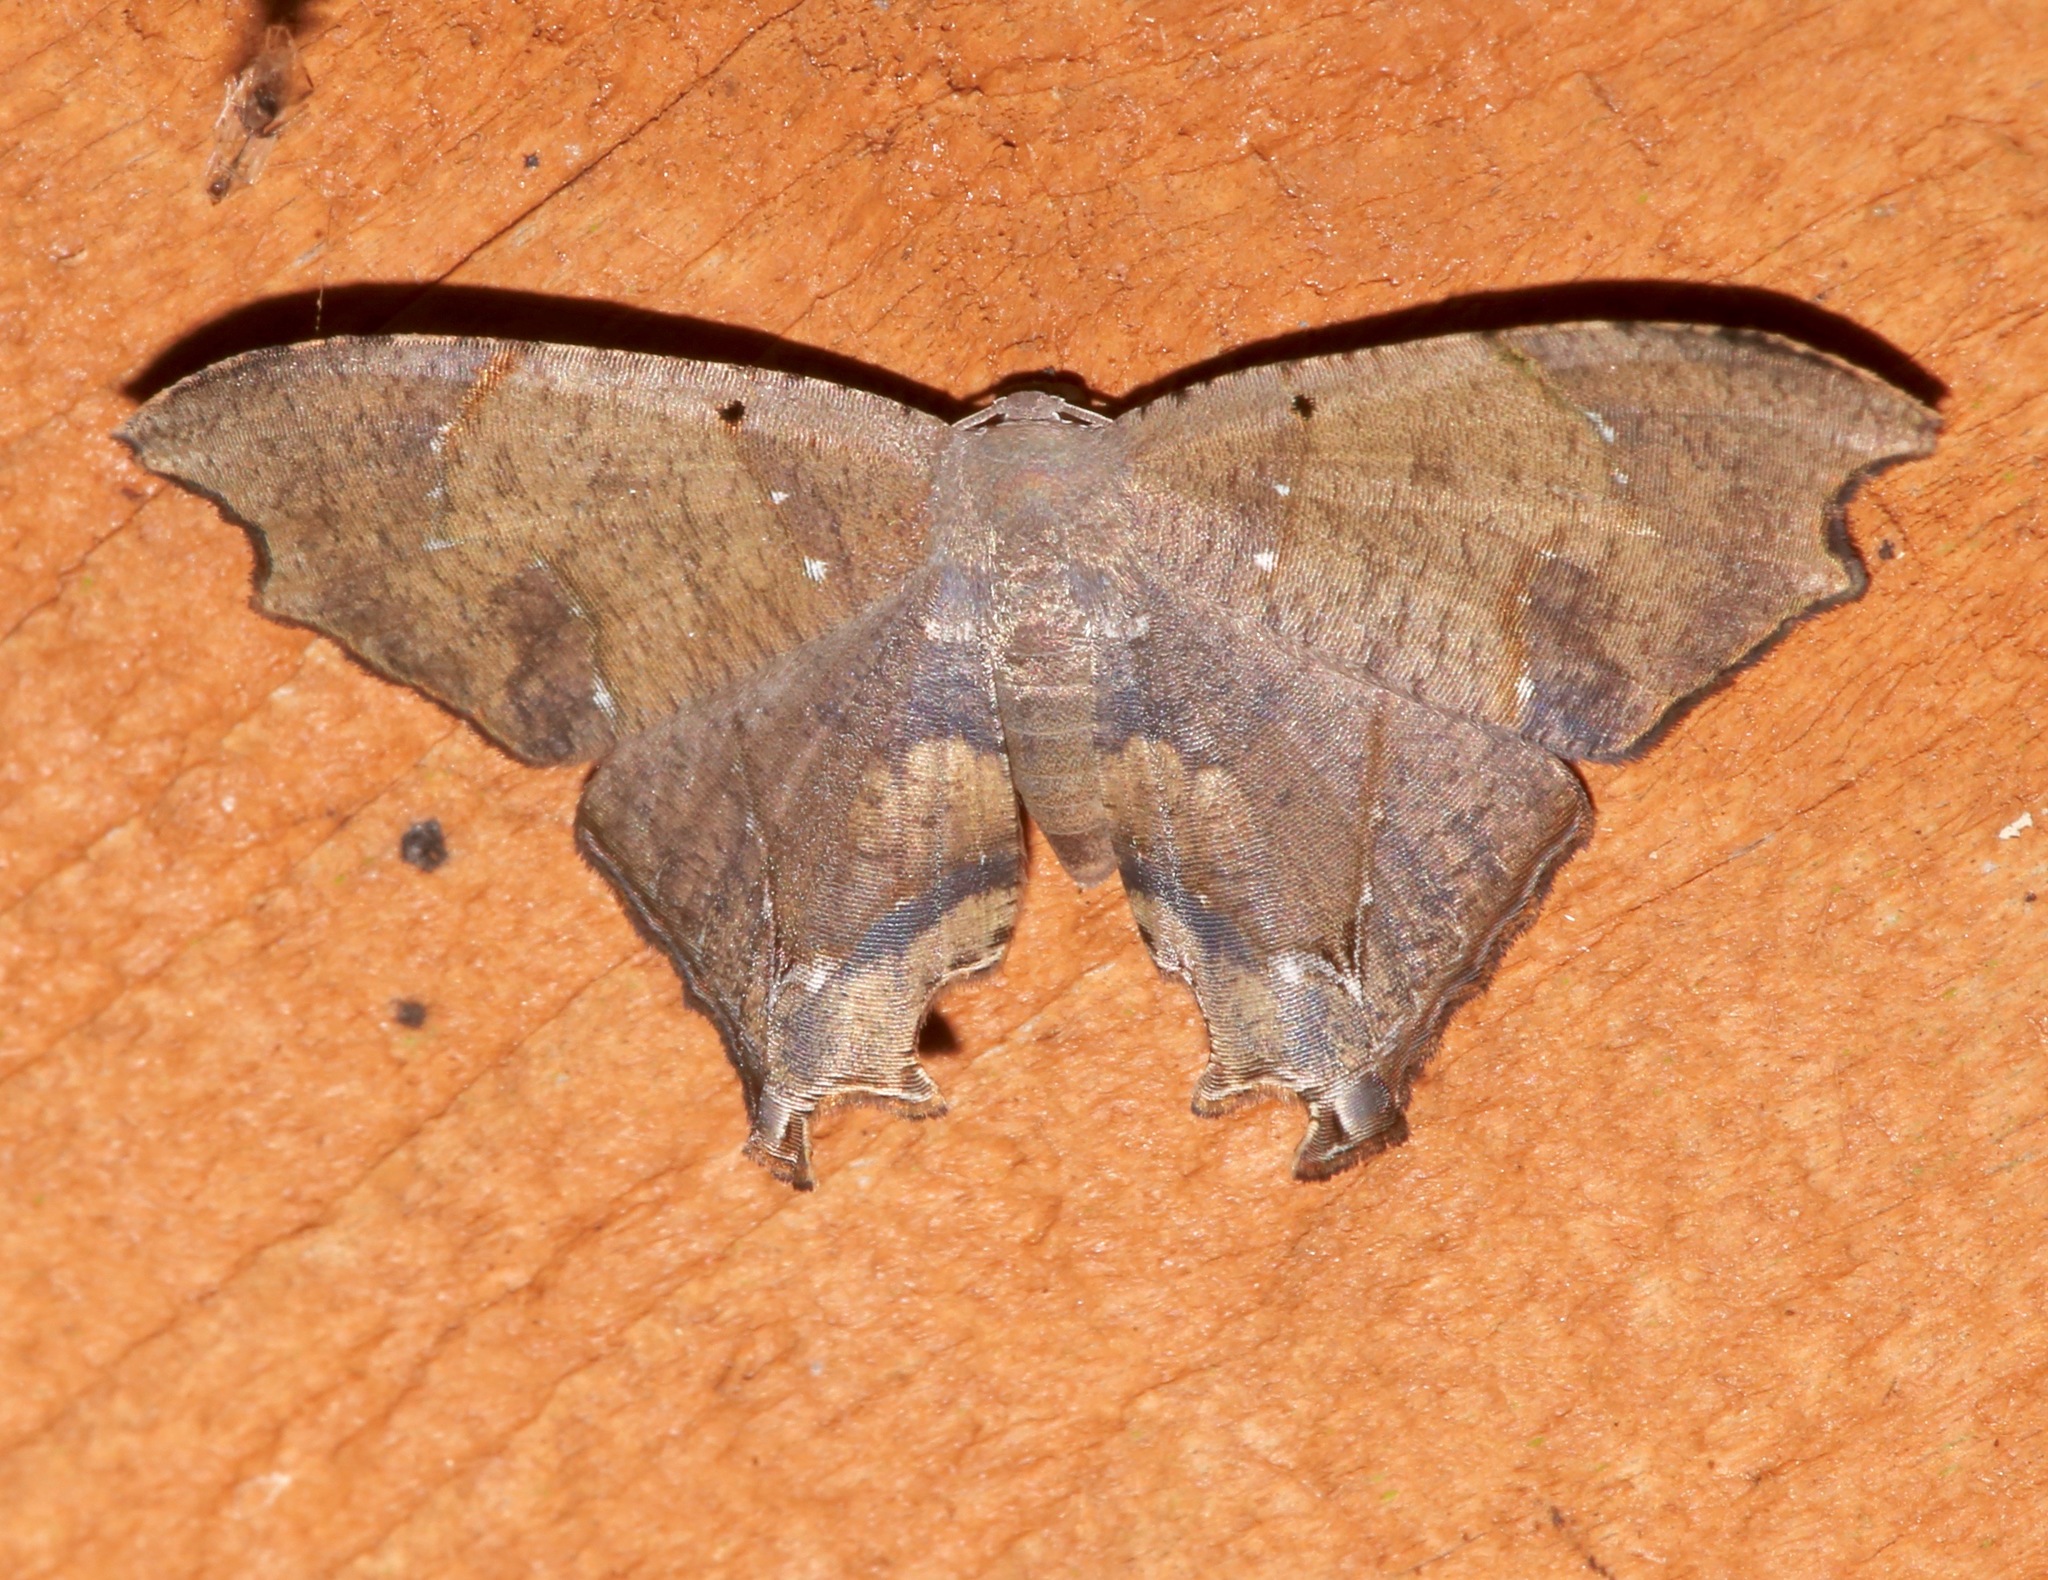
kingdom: Animalia
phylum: Arthropoda
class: Insecta
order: Lepidoptera
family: Uraniidae
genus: Trotorhombia
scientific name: Trotorhombia metachromata
